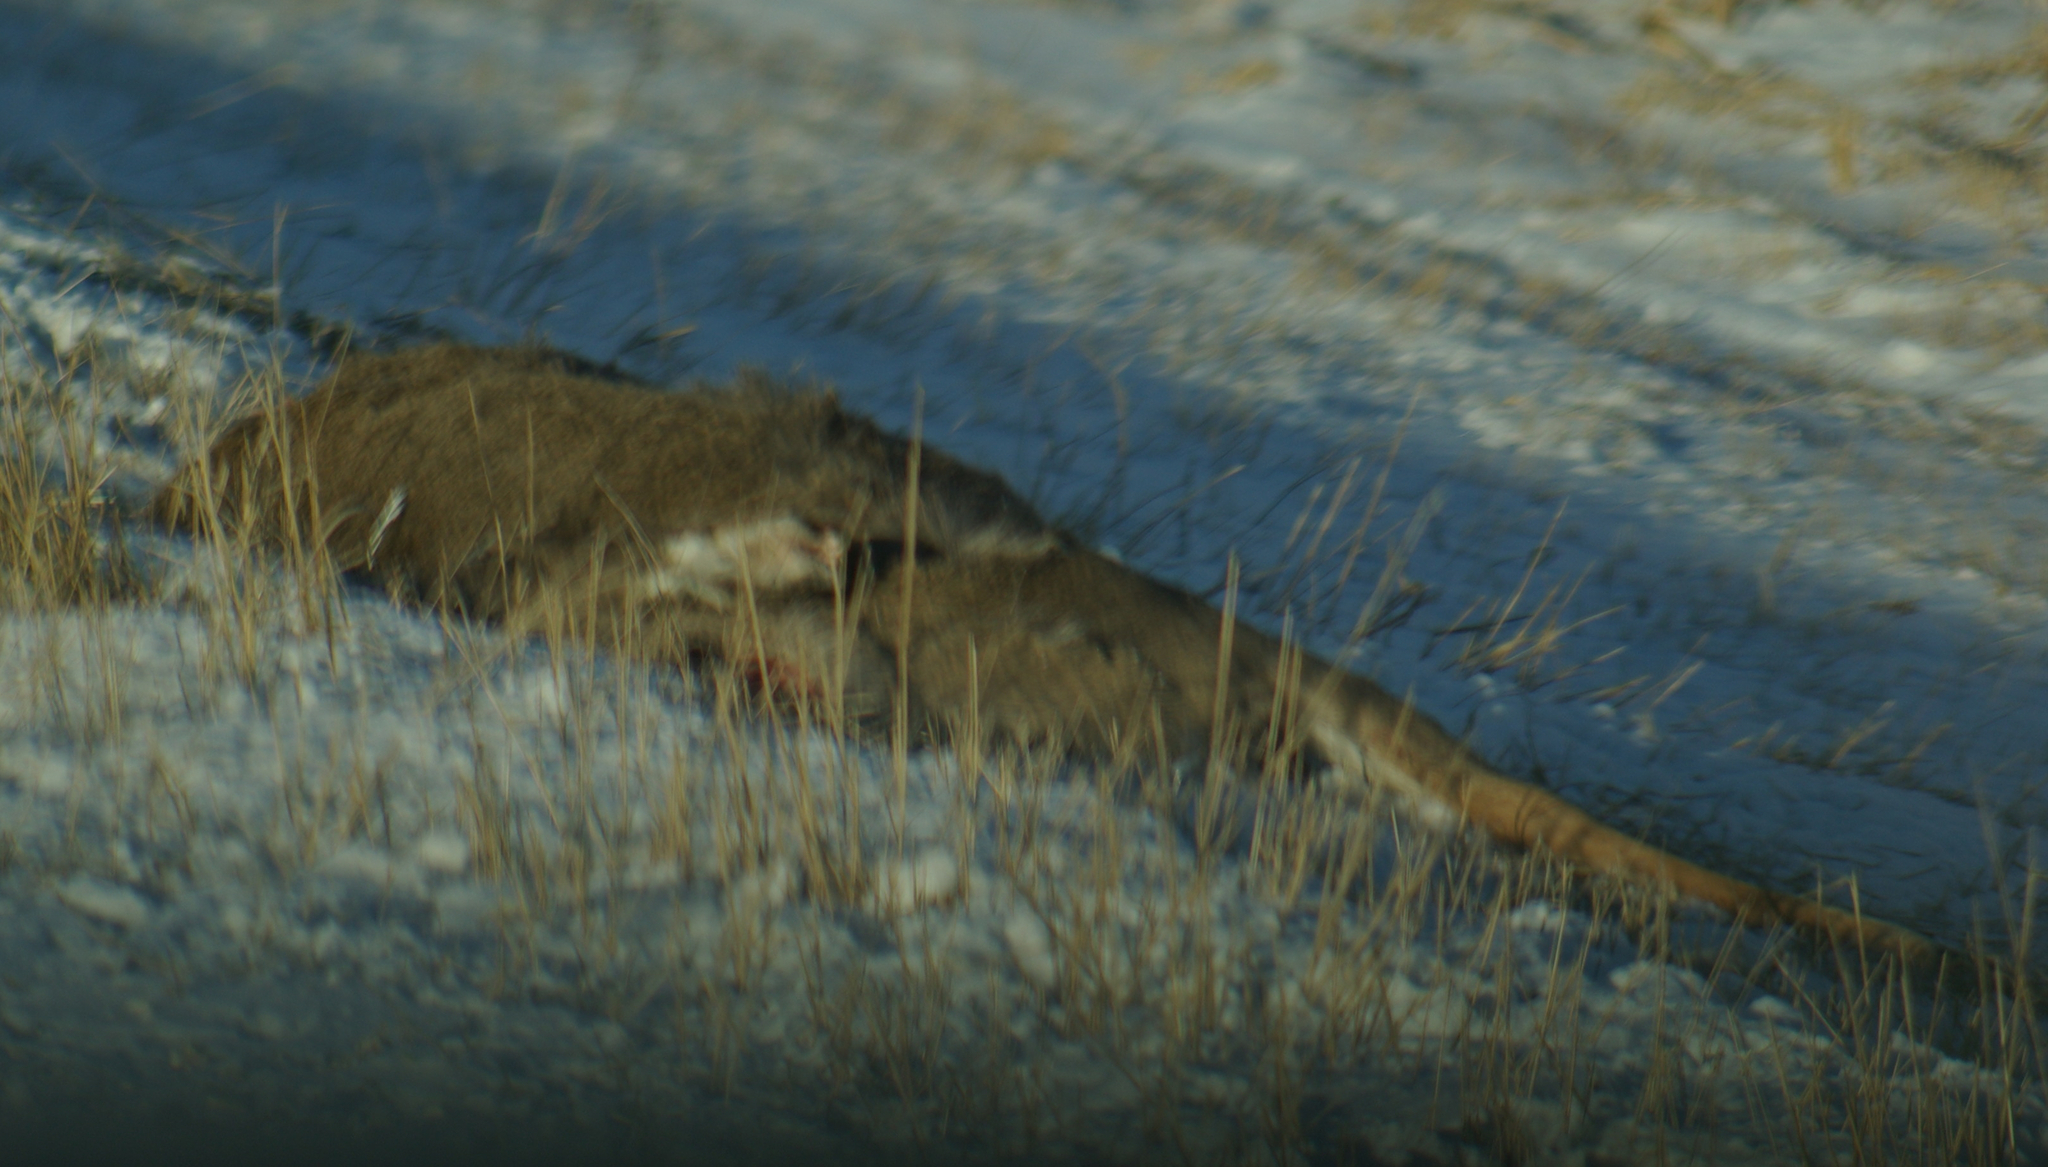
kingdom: Animalia
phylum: Chordata
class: Mammalia
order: Artiodactyla
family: Cervidae
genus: Odocoileus
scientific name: Odocoileus virginianus
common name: White-tailed deer
